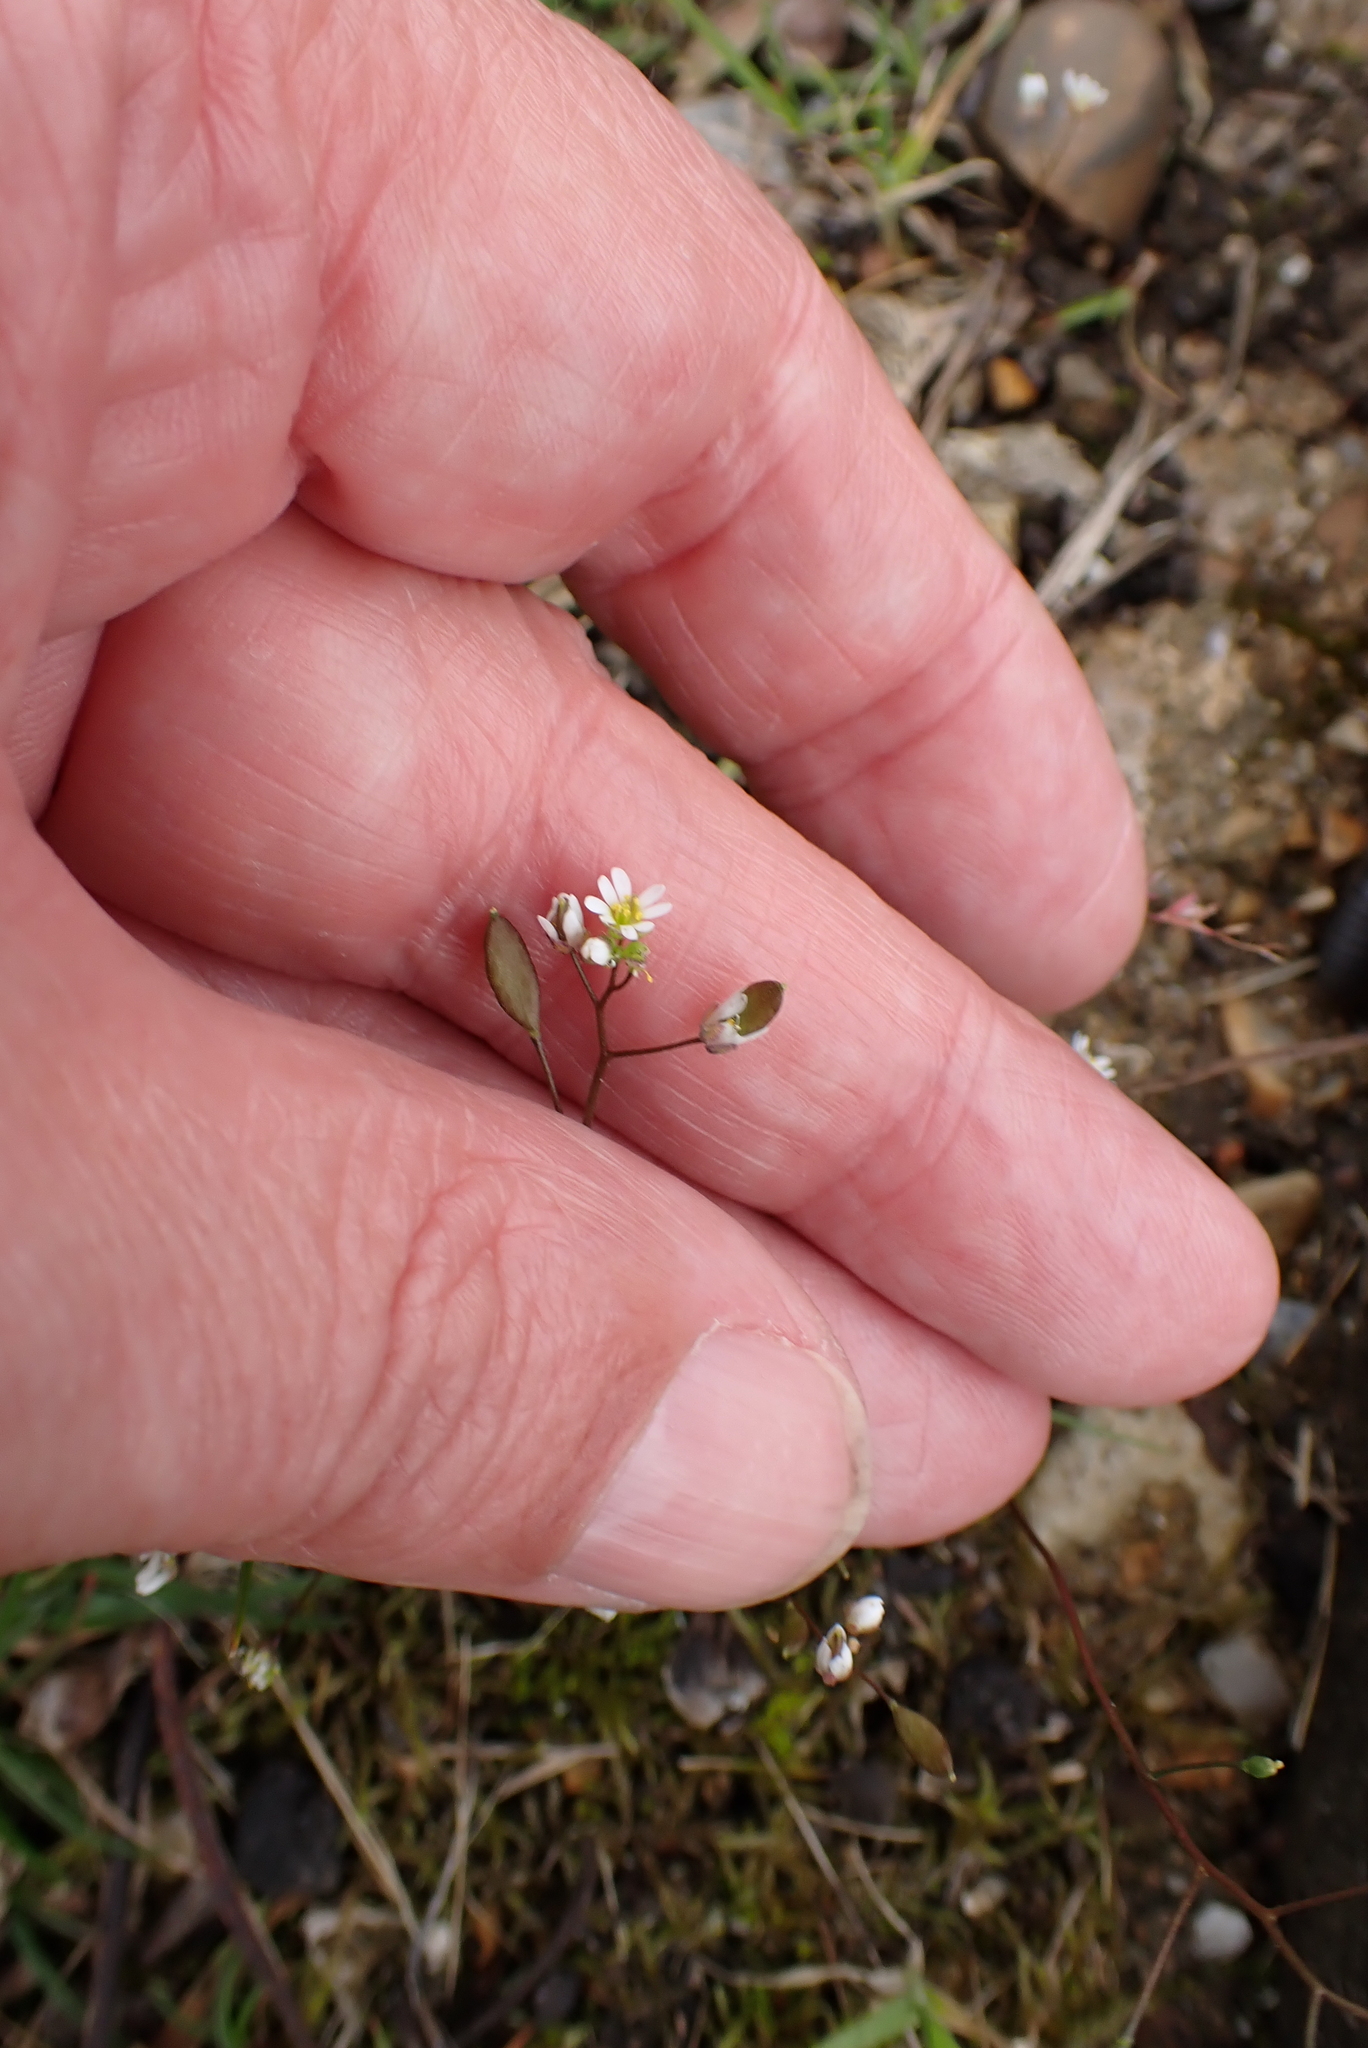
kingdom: Plantae
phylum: Tracheophyta
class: Magnoliopsida
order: Brassicales
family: Brassicaceae
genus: Draba
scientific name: Draba verna
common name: Spring draba
